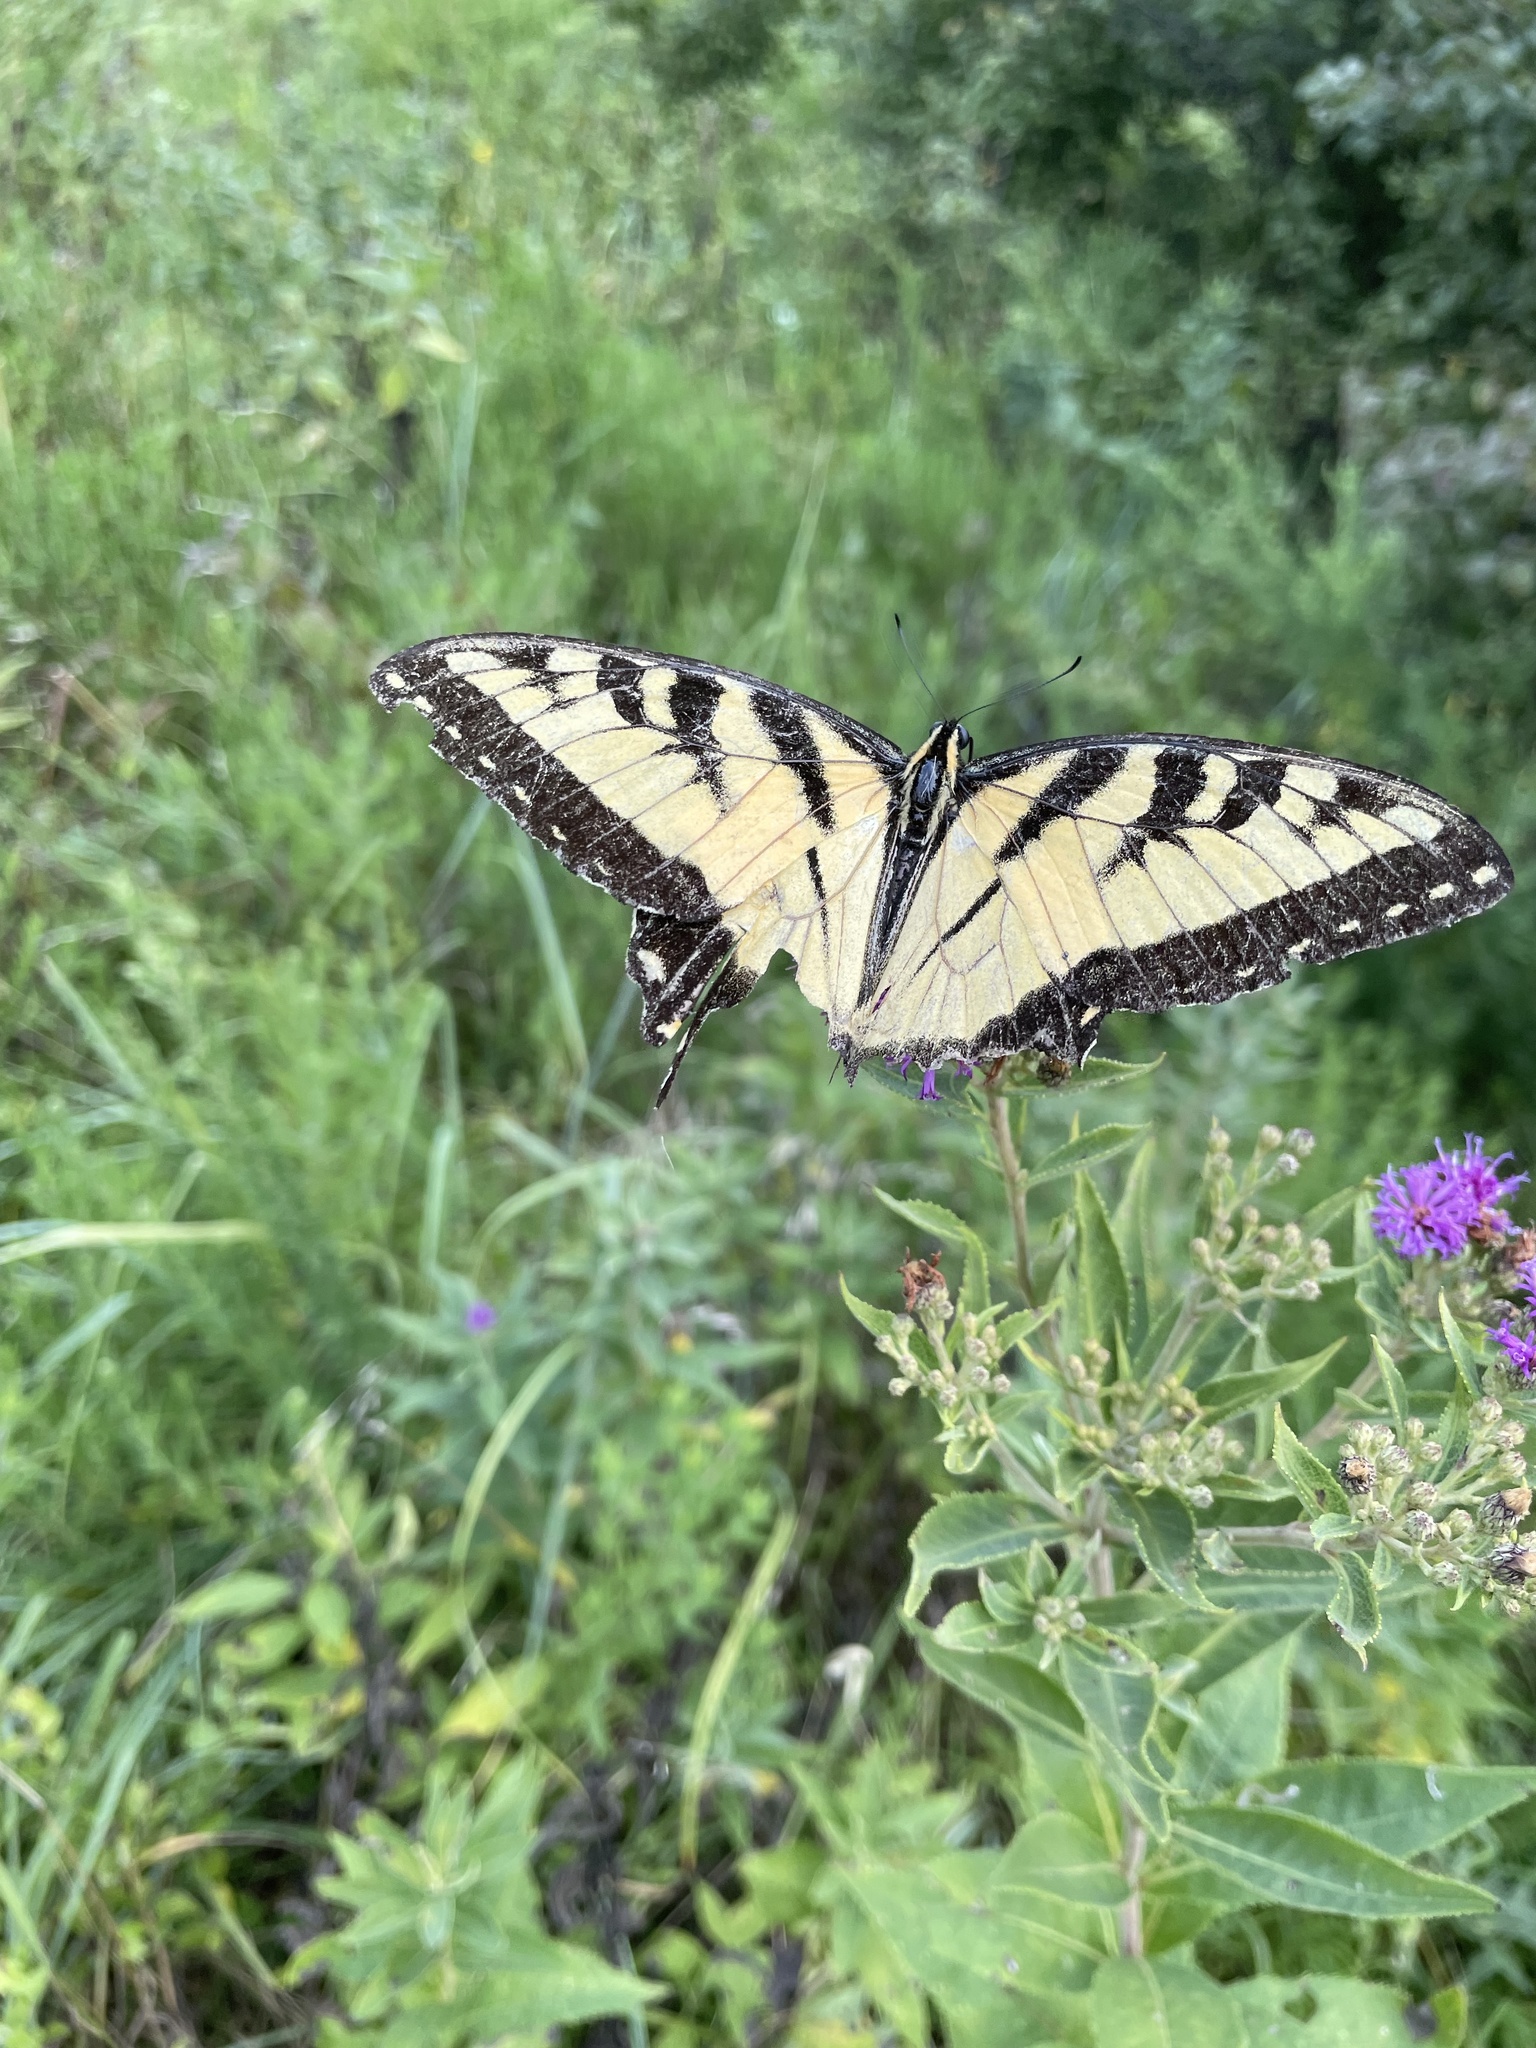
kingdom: Animalia
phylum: Arthropoda
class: Insecta
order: Lepidoptera
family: Papilionidae
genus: Papilio
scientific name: Papilio glaucus
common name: Tiger swallowtail
